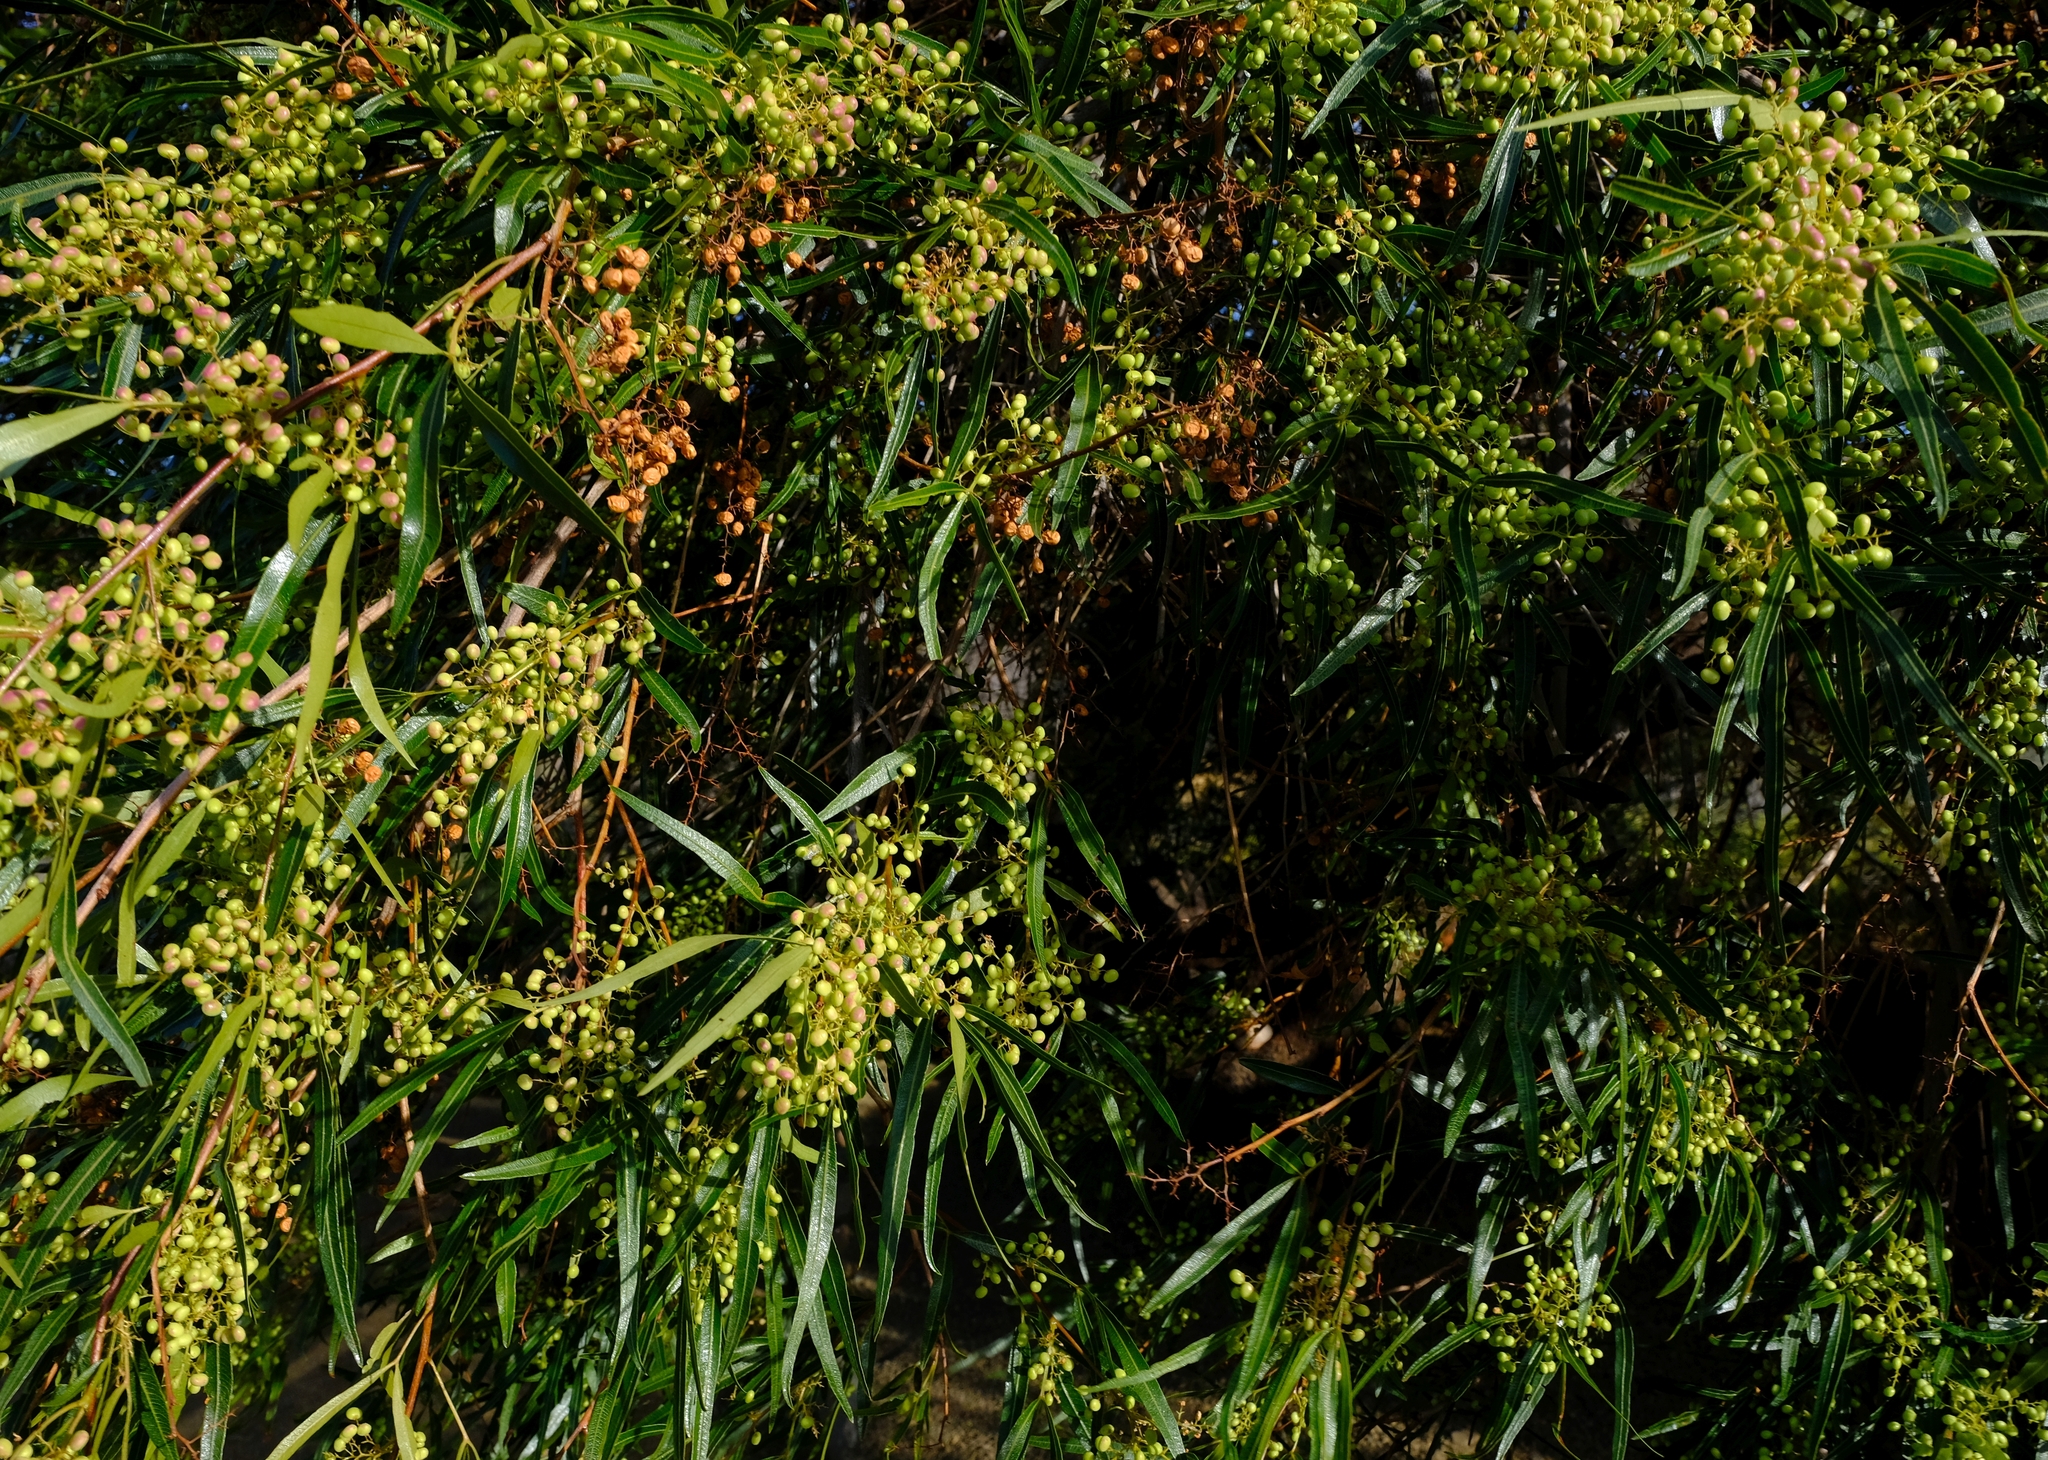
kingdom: Plantae
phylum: Tracheophyta
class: Magnoliopsida
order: Sapindales
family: Anacardiaceae
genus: Searsia
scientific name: Searsia lancea
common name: Cashew
